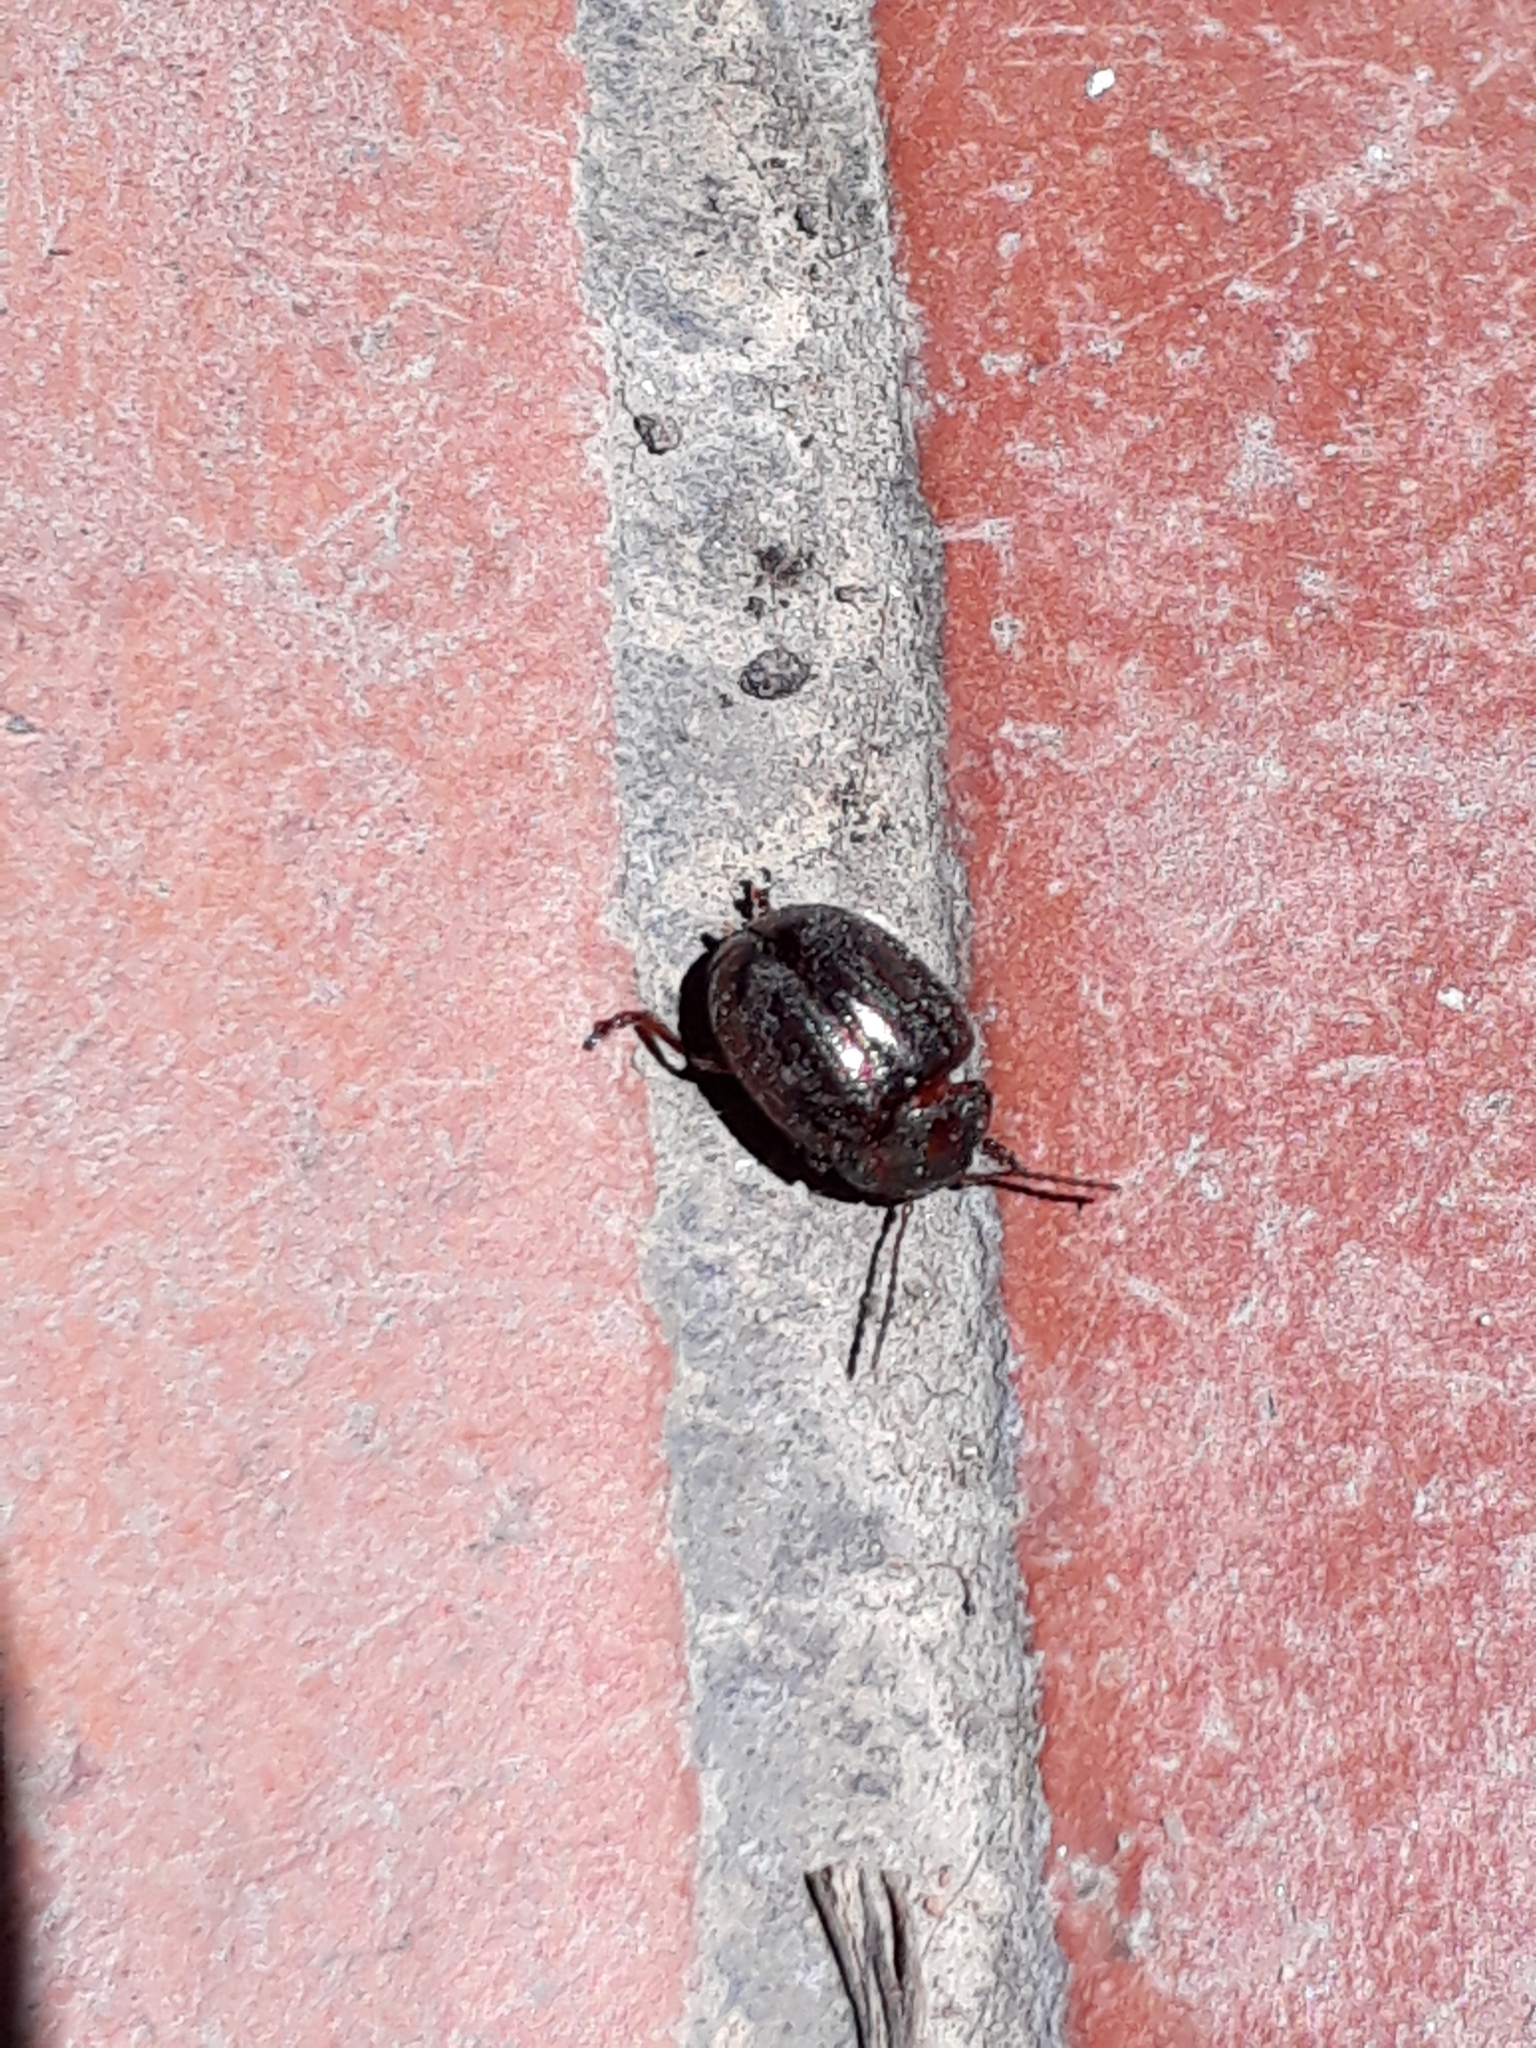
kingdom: Animalia
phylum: Arthropoda
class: Insecta
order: Coleoptera
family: Chrysomelidae
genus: Chrysolina
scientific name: Chrysolina bankii
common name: Leaf beetle
